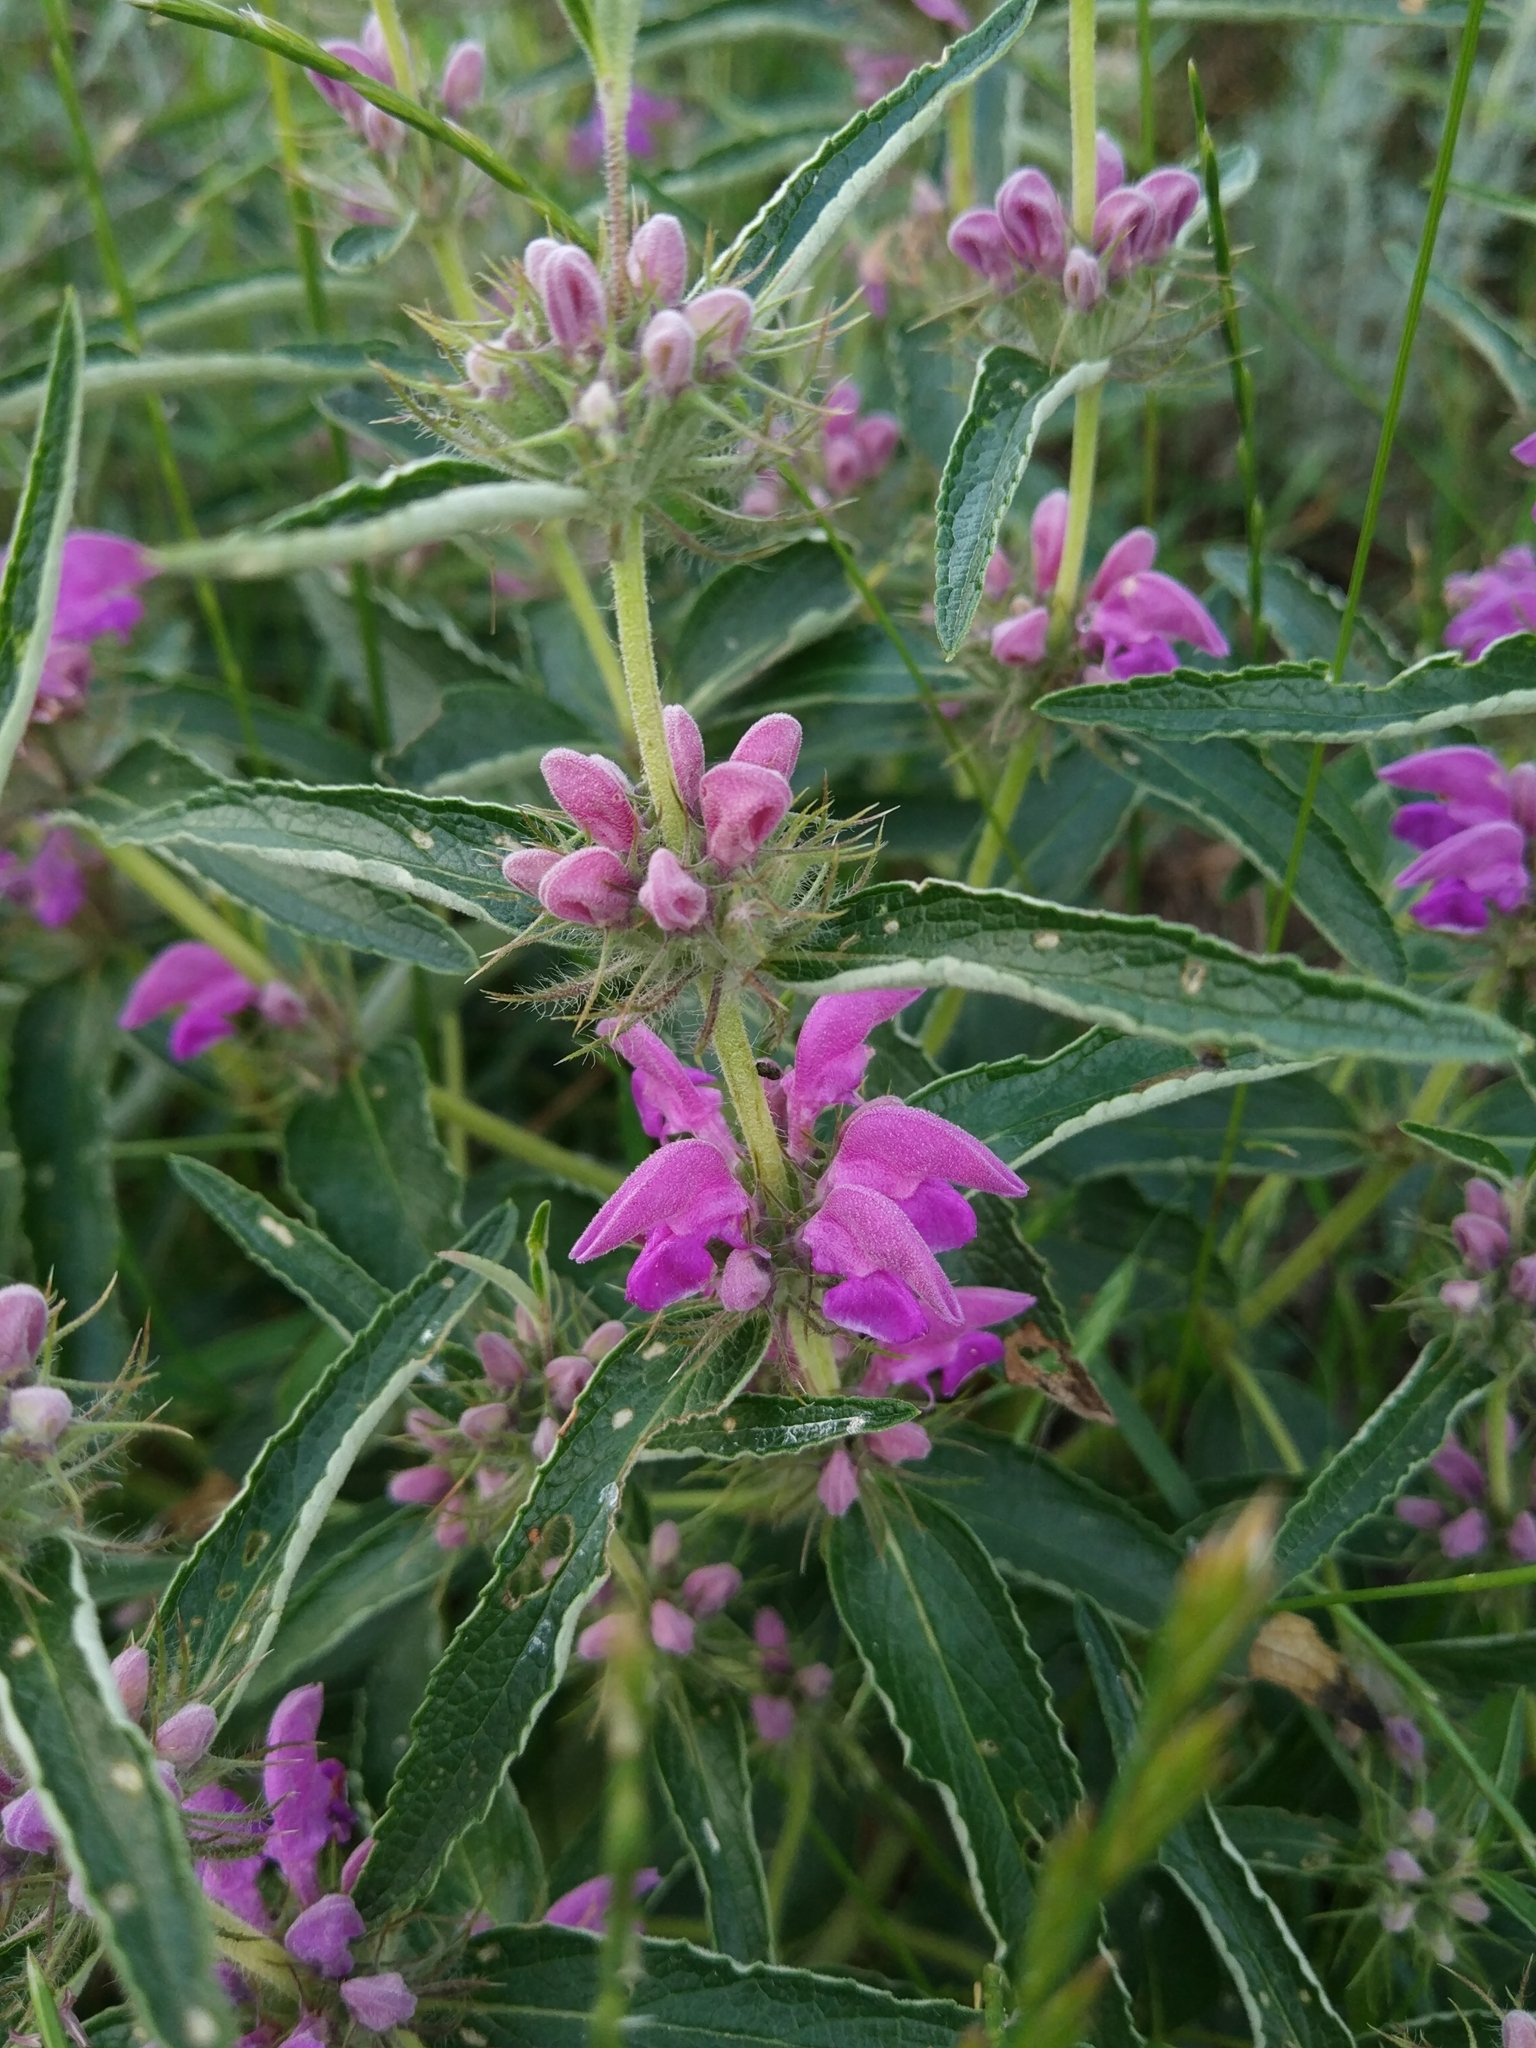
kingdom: Plantae
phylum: Tracheophyta
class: Magnoliopsida
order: Lamiales
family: Lamiaceae
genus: Phlomis
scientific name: Phlomis herba-venti
